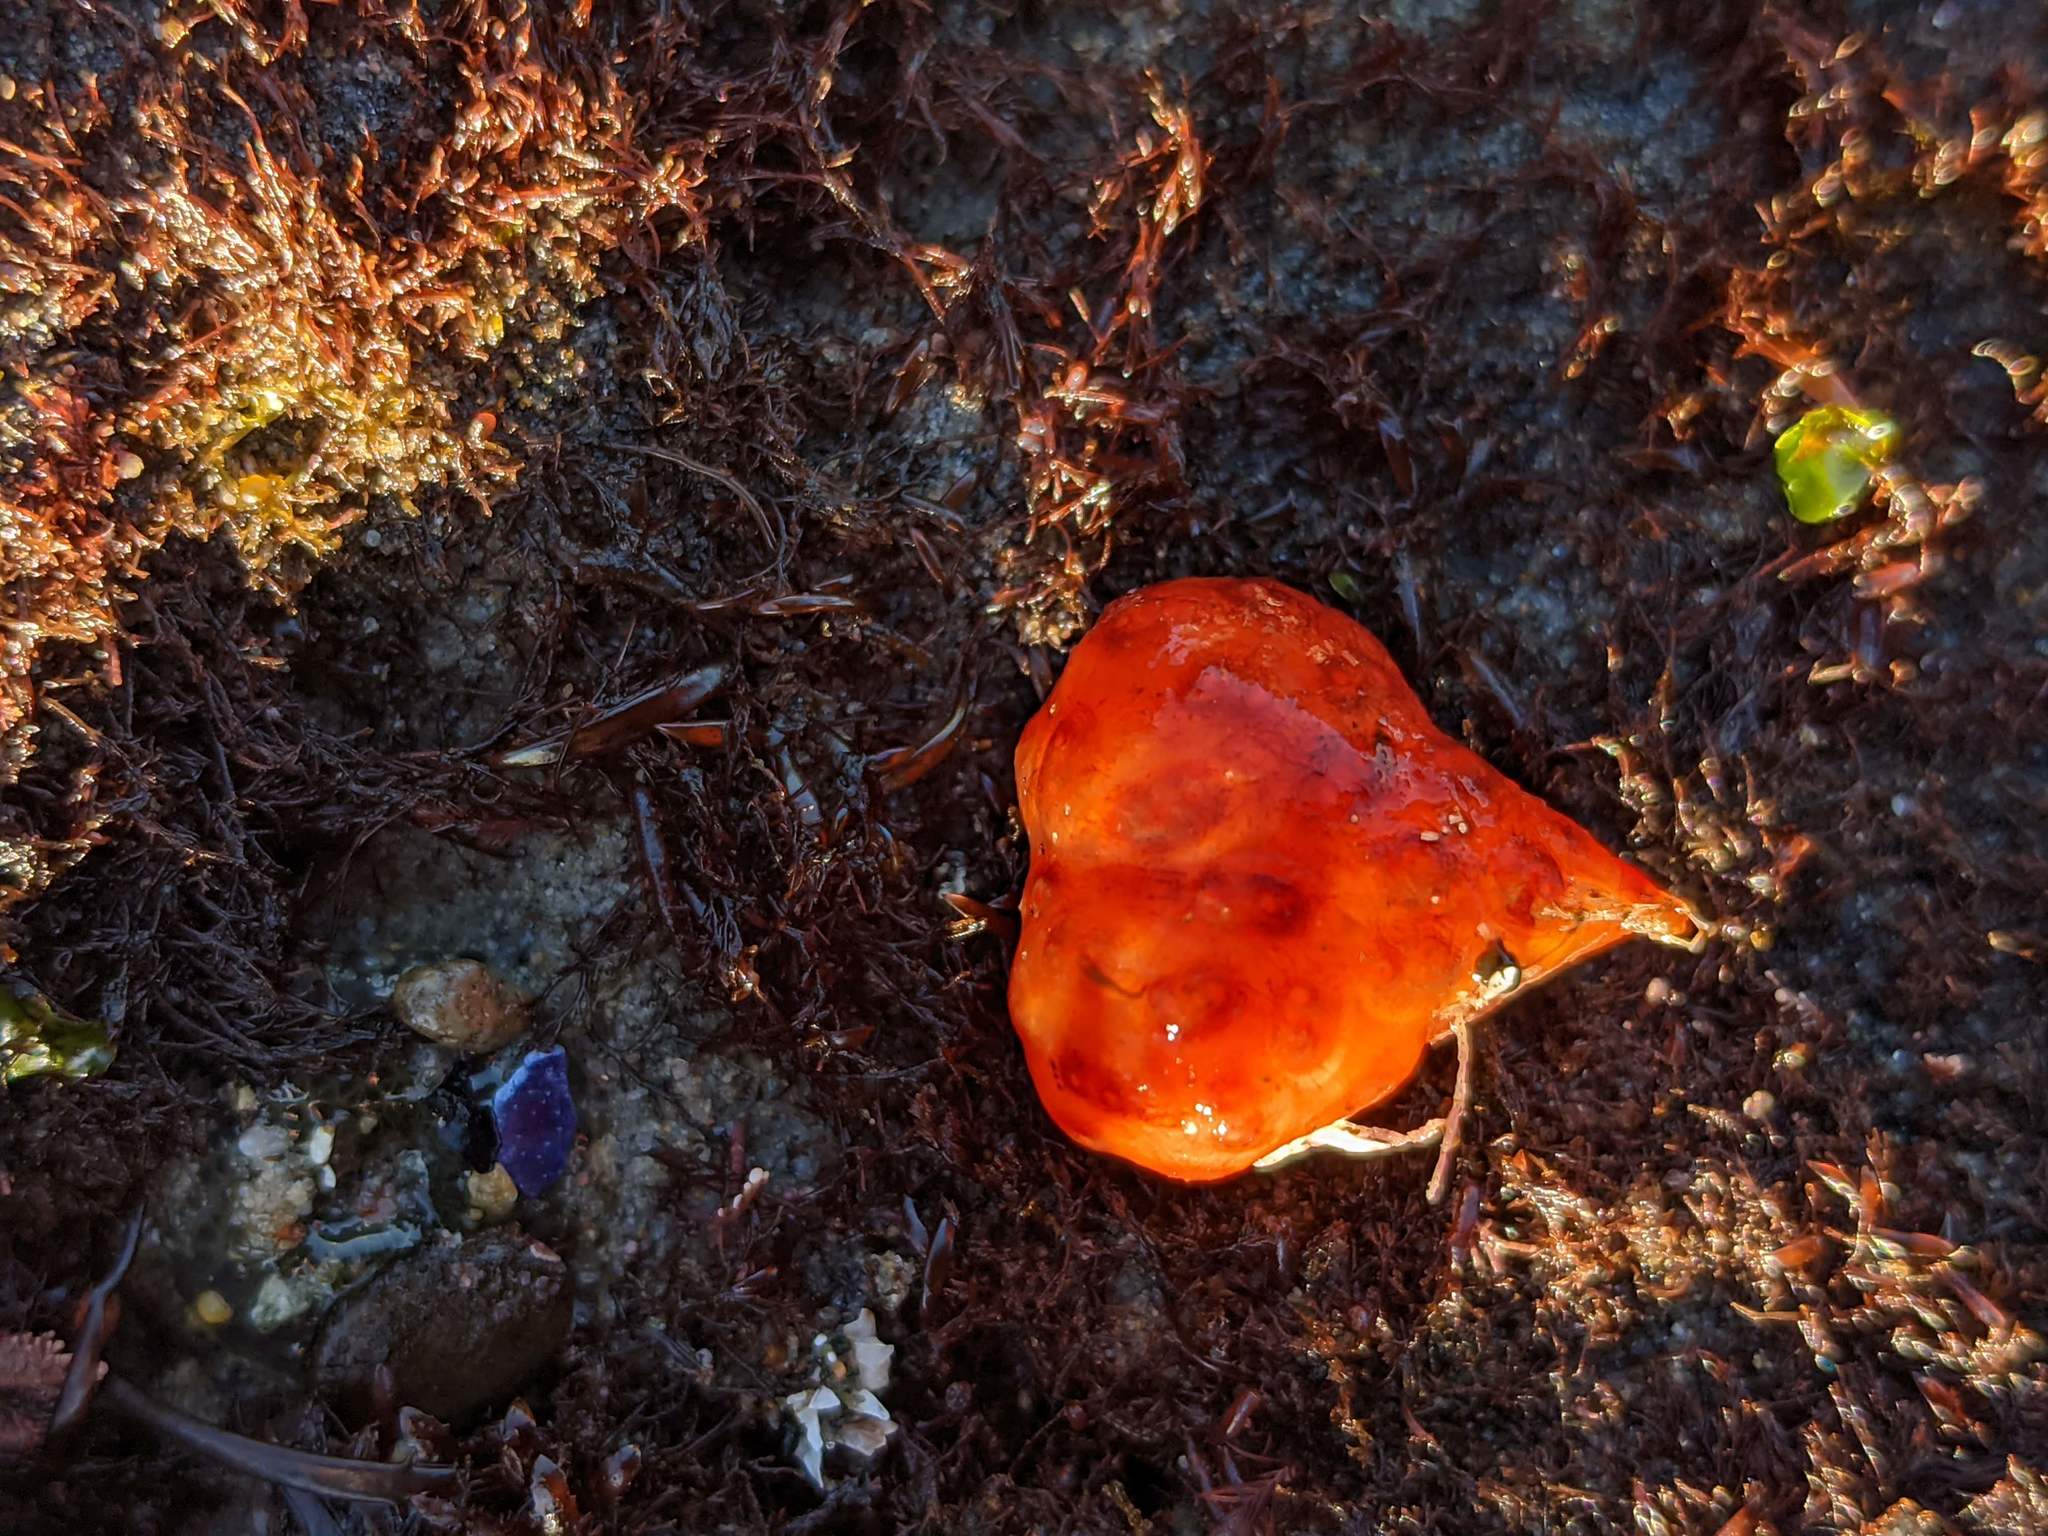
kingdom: Animalia
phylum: Chordata
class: Ascidiacea
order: Stolidobranchia
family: Styelidae
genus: Metandrocarpa
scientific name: Metandrocarpa dura
